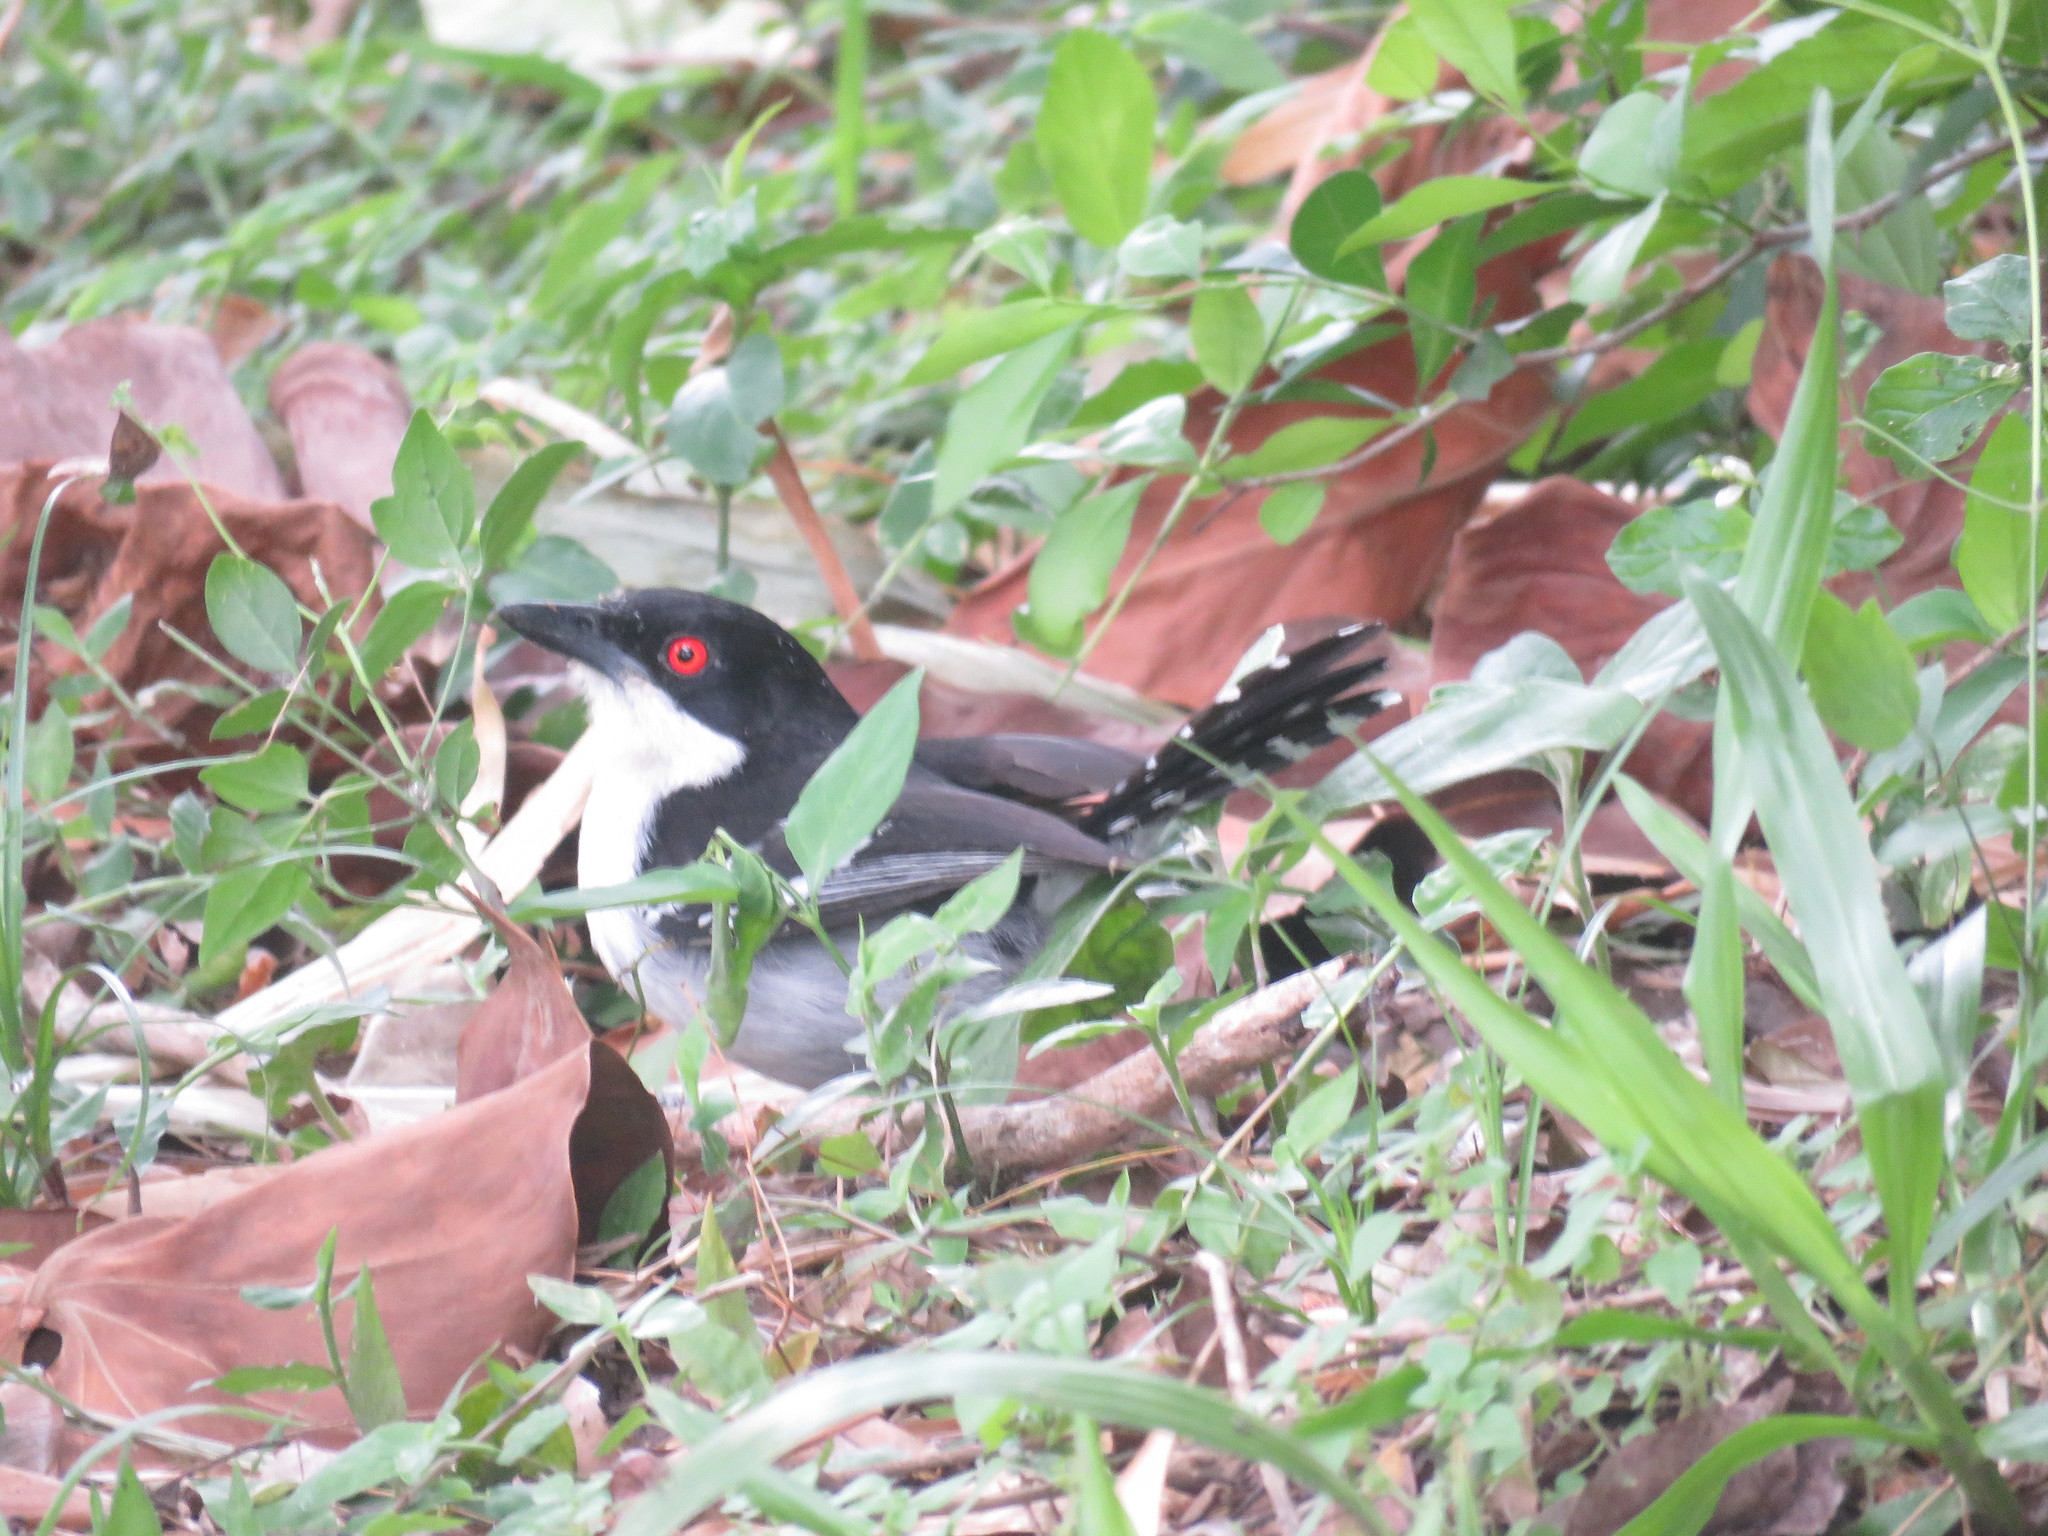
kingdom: Animalia
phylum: Chordata
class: Aves
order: Passeriformes
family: Thamnophilidae
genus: Taraba
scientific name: Taraba major
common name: Great antshrike
